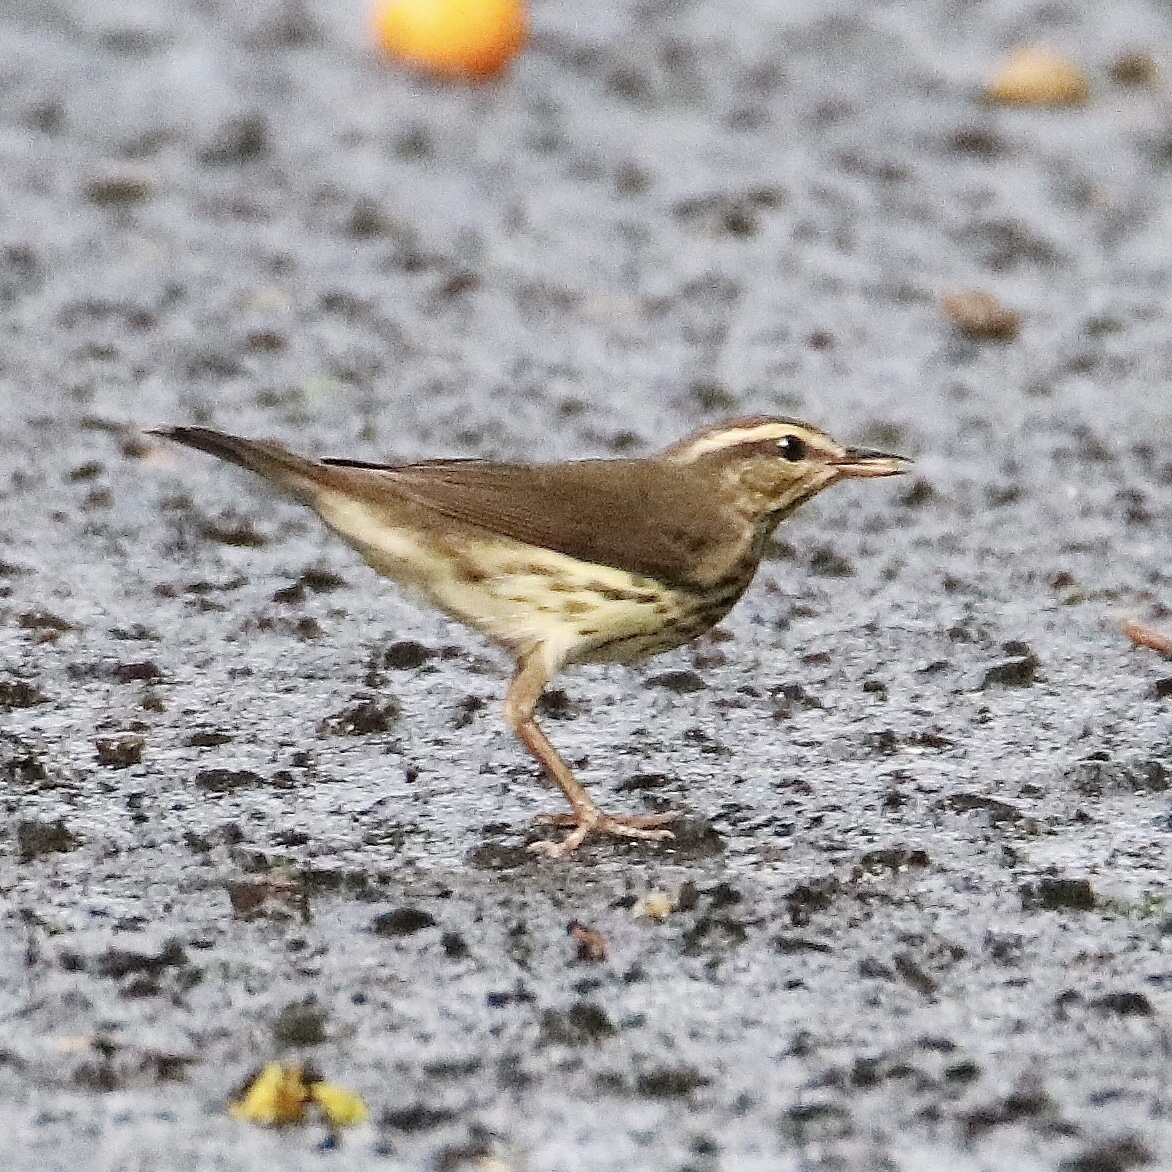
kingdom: Animalia
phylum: Chordata
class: Aves
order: Passeriformes
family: Parulidae
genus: Parkesia
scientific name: Parkesia motacilla
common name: Louisiana waterthrush
